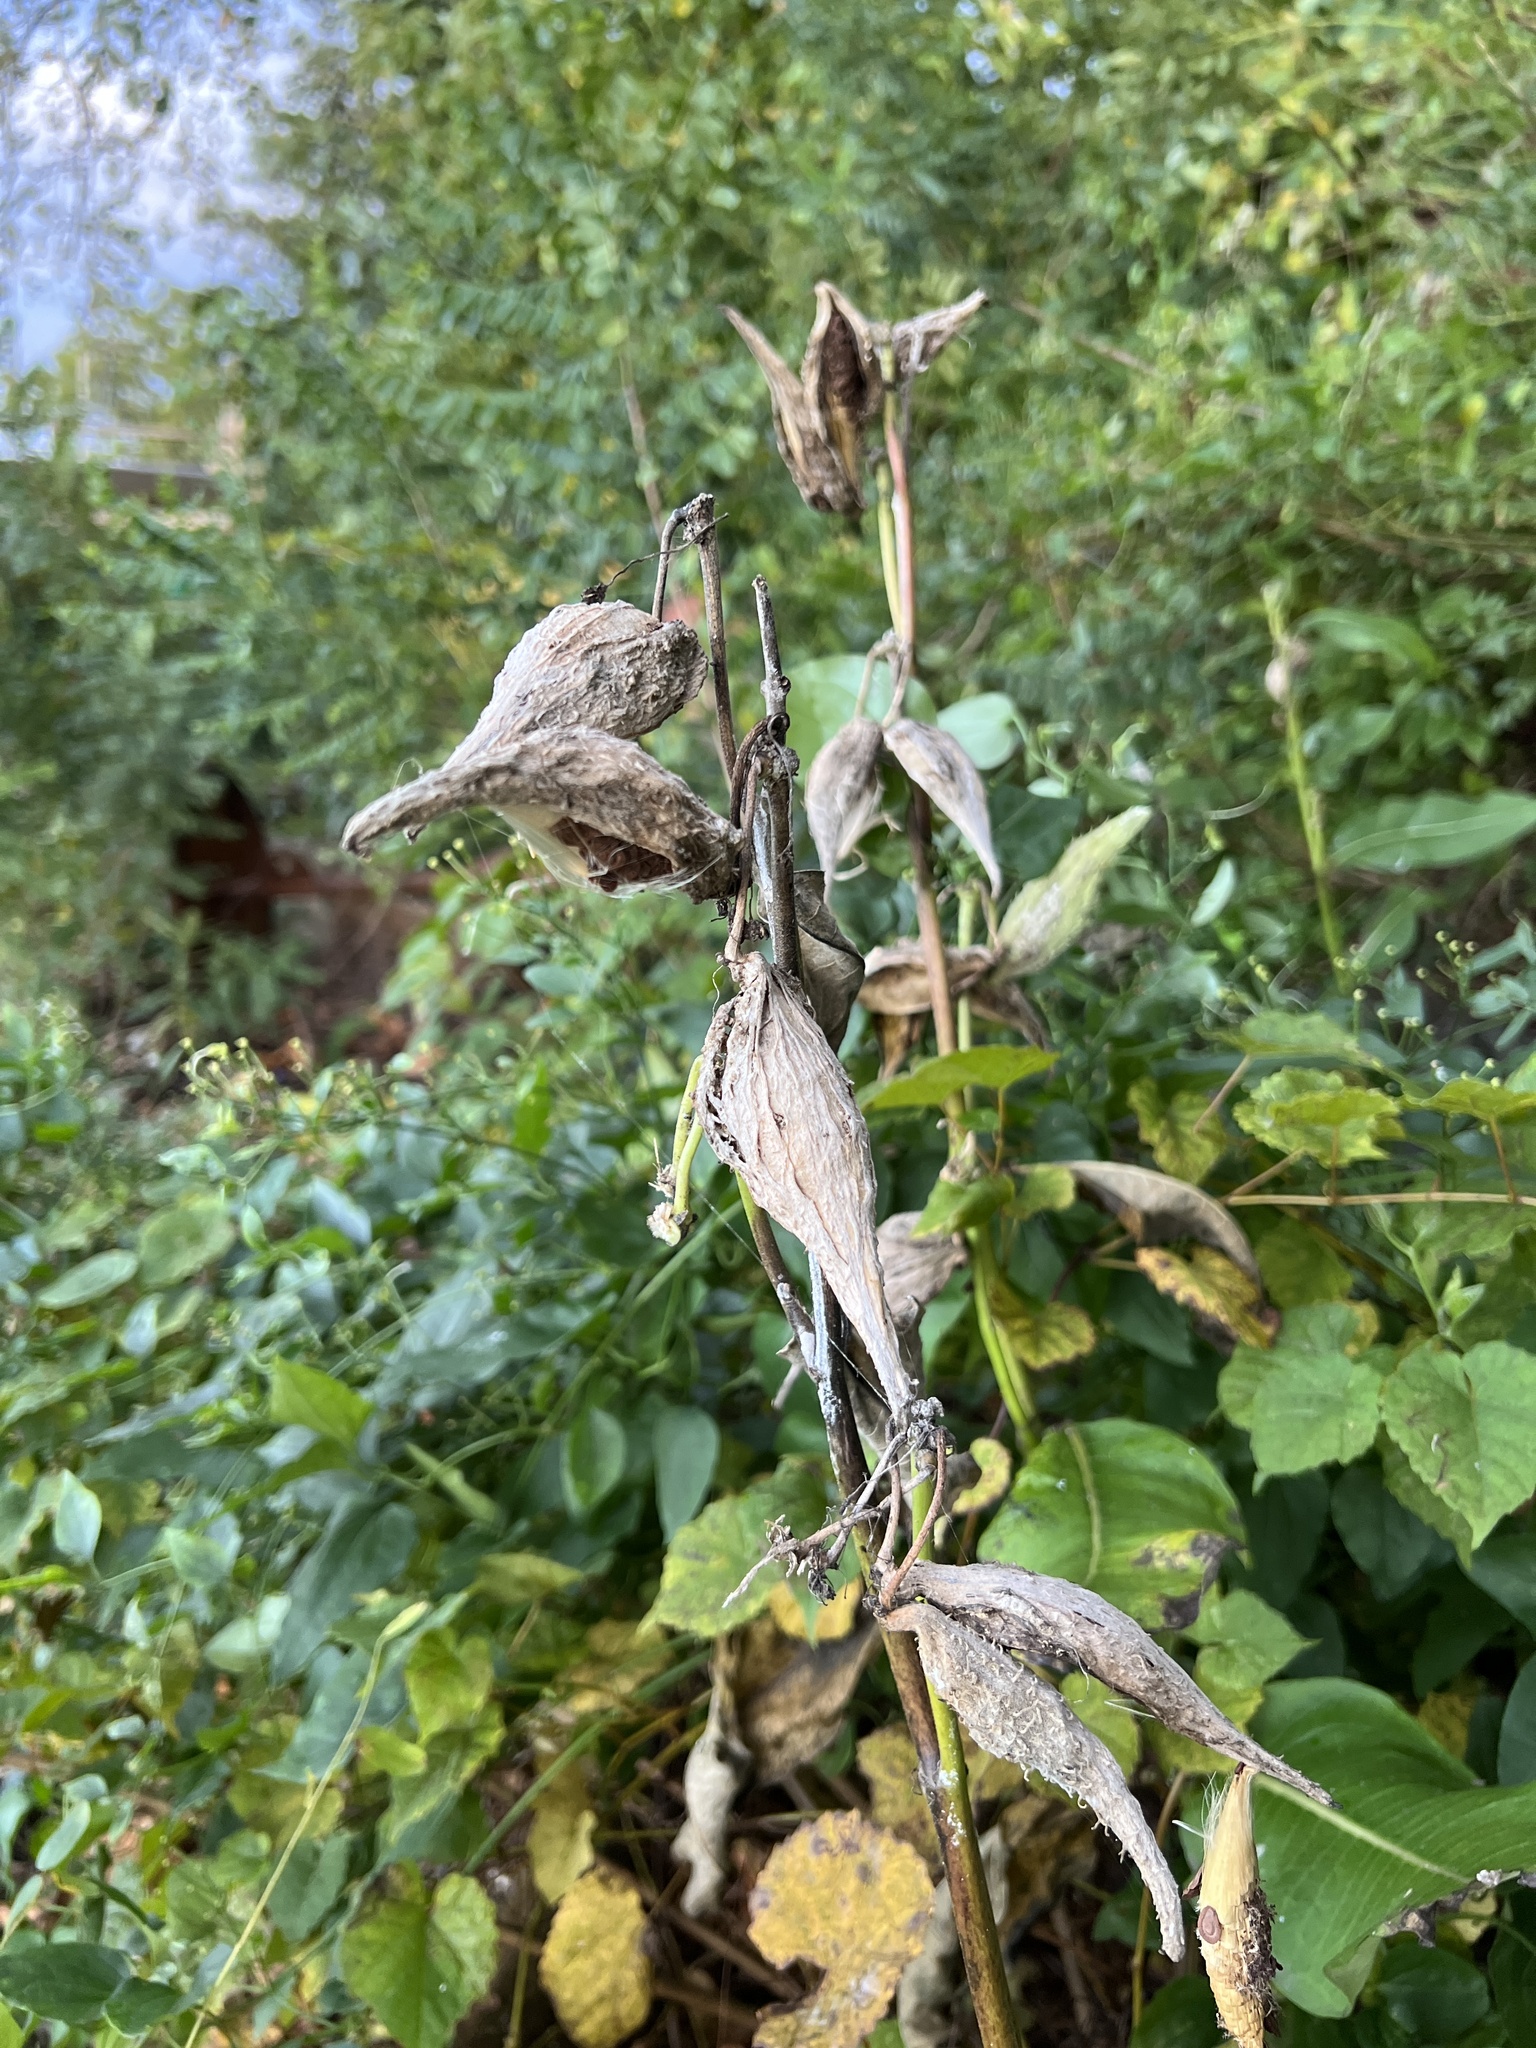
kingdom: Plantae
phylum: Tracheophyta
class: Magnoliopsida
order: Gentianales
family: Apocynaceae
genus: Asclepias
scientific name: Asclepias syriaca
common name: Common milkweed
